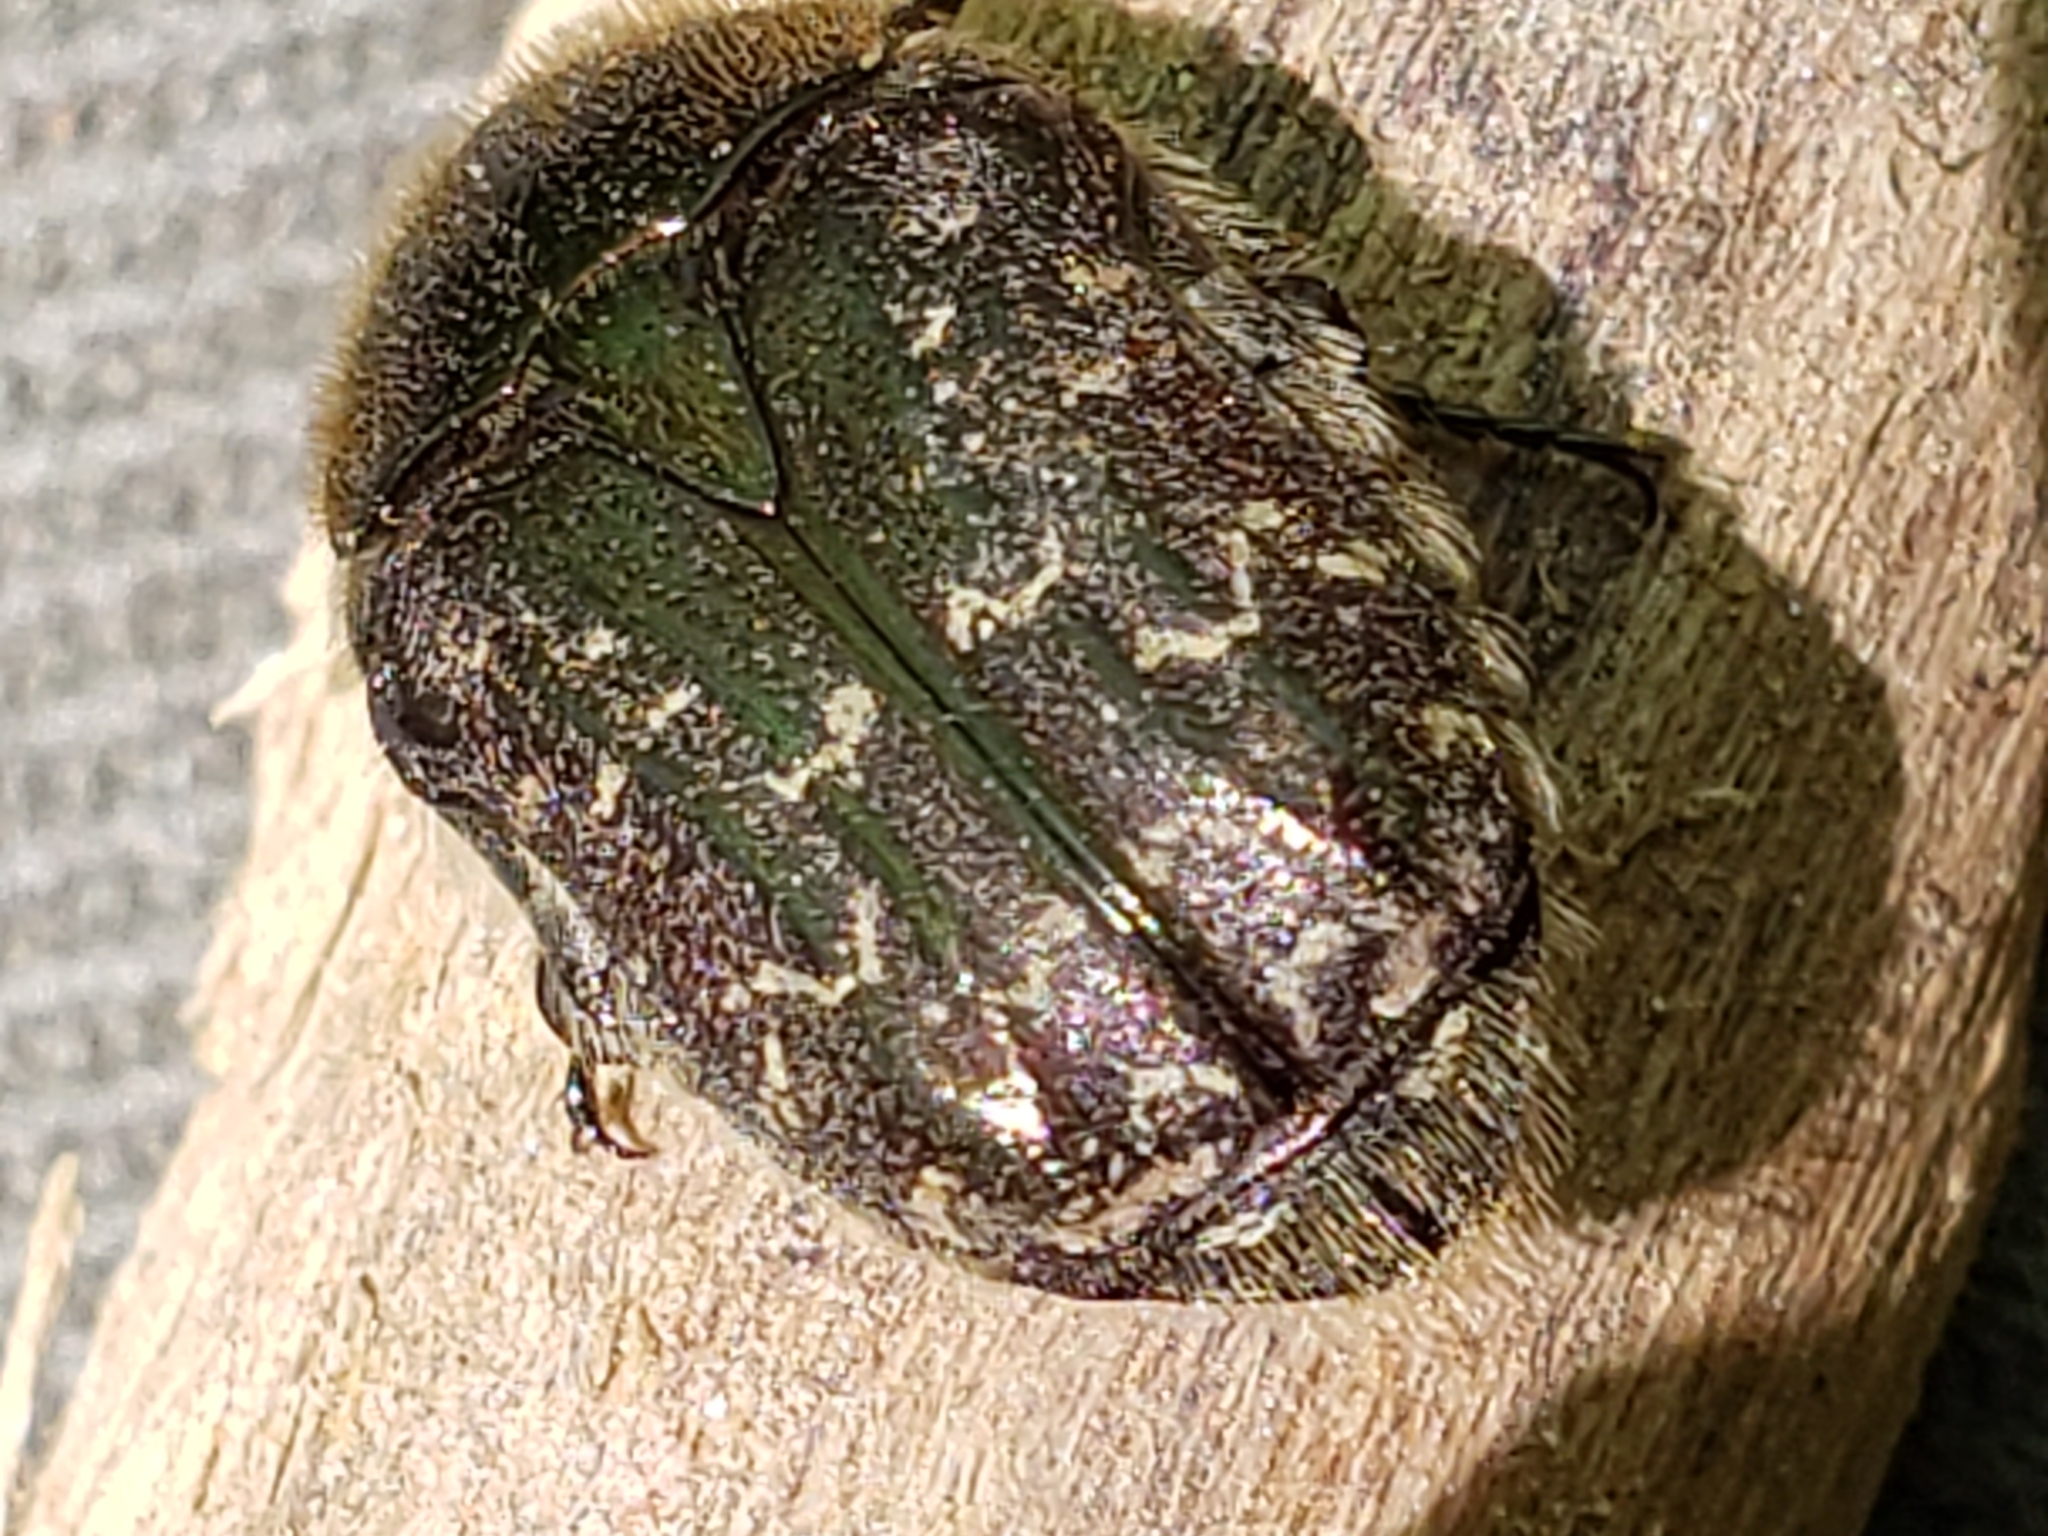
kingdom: Animalia
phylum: Arthropoda
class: Insecta
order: Coleoptera
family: Scarabaeidae
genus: Euphoria
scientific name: Euphoria sepulcralis
